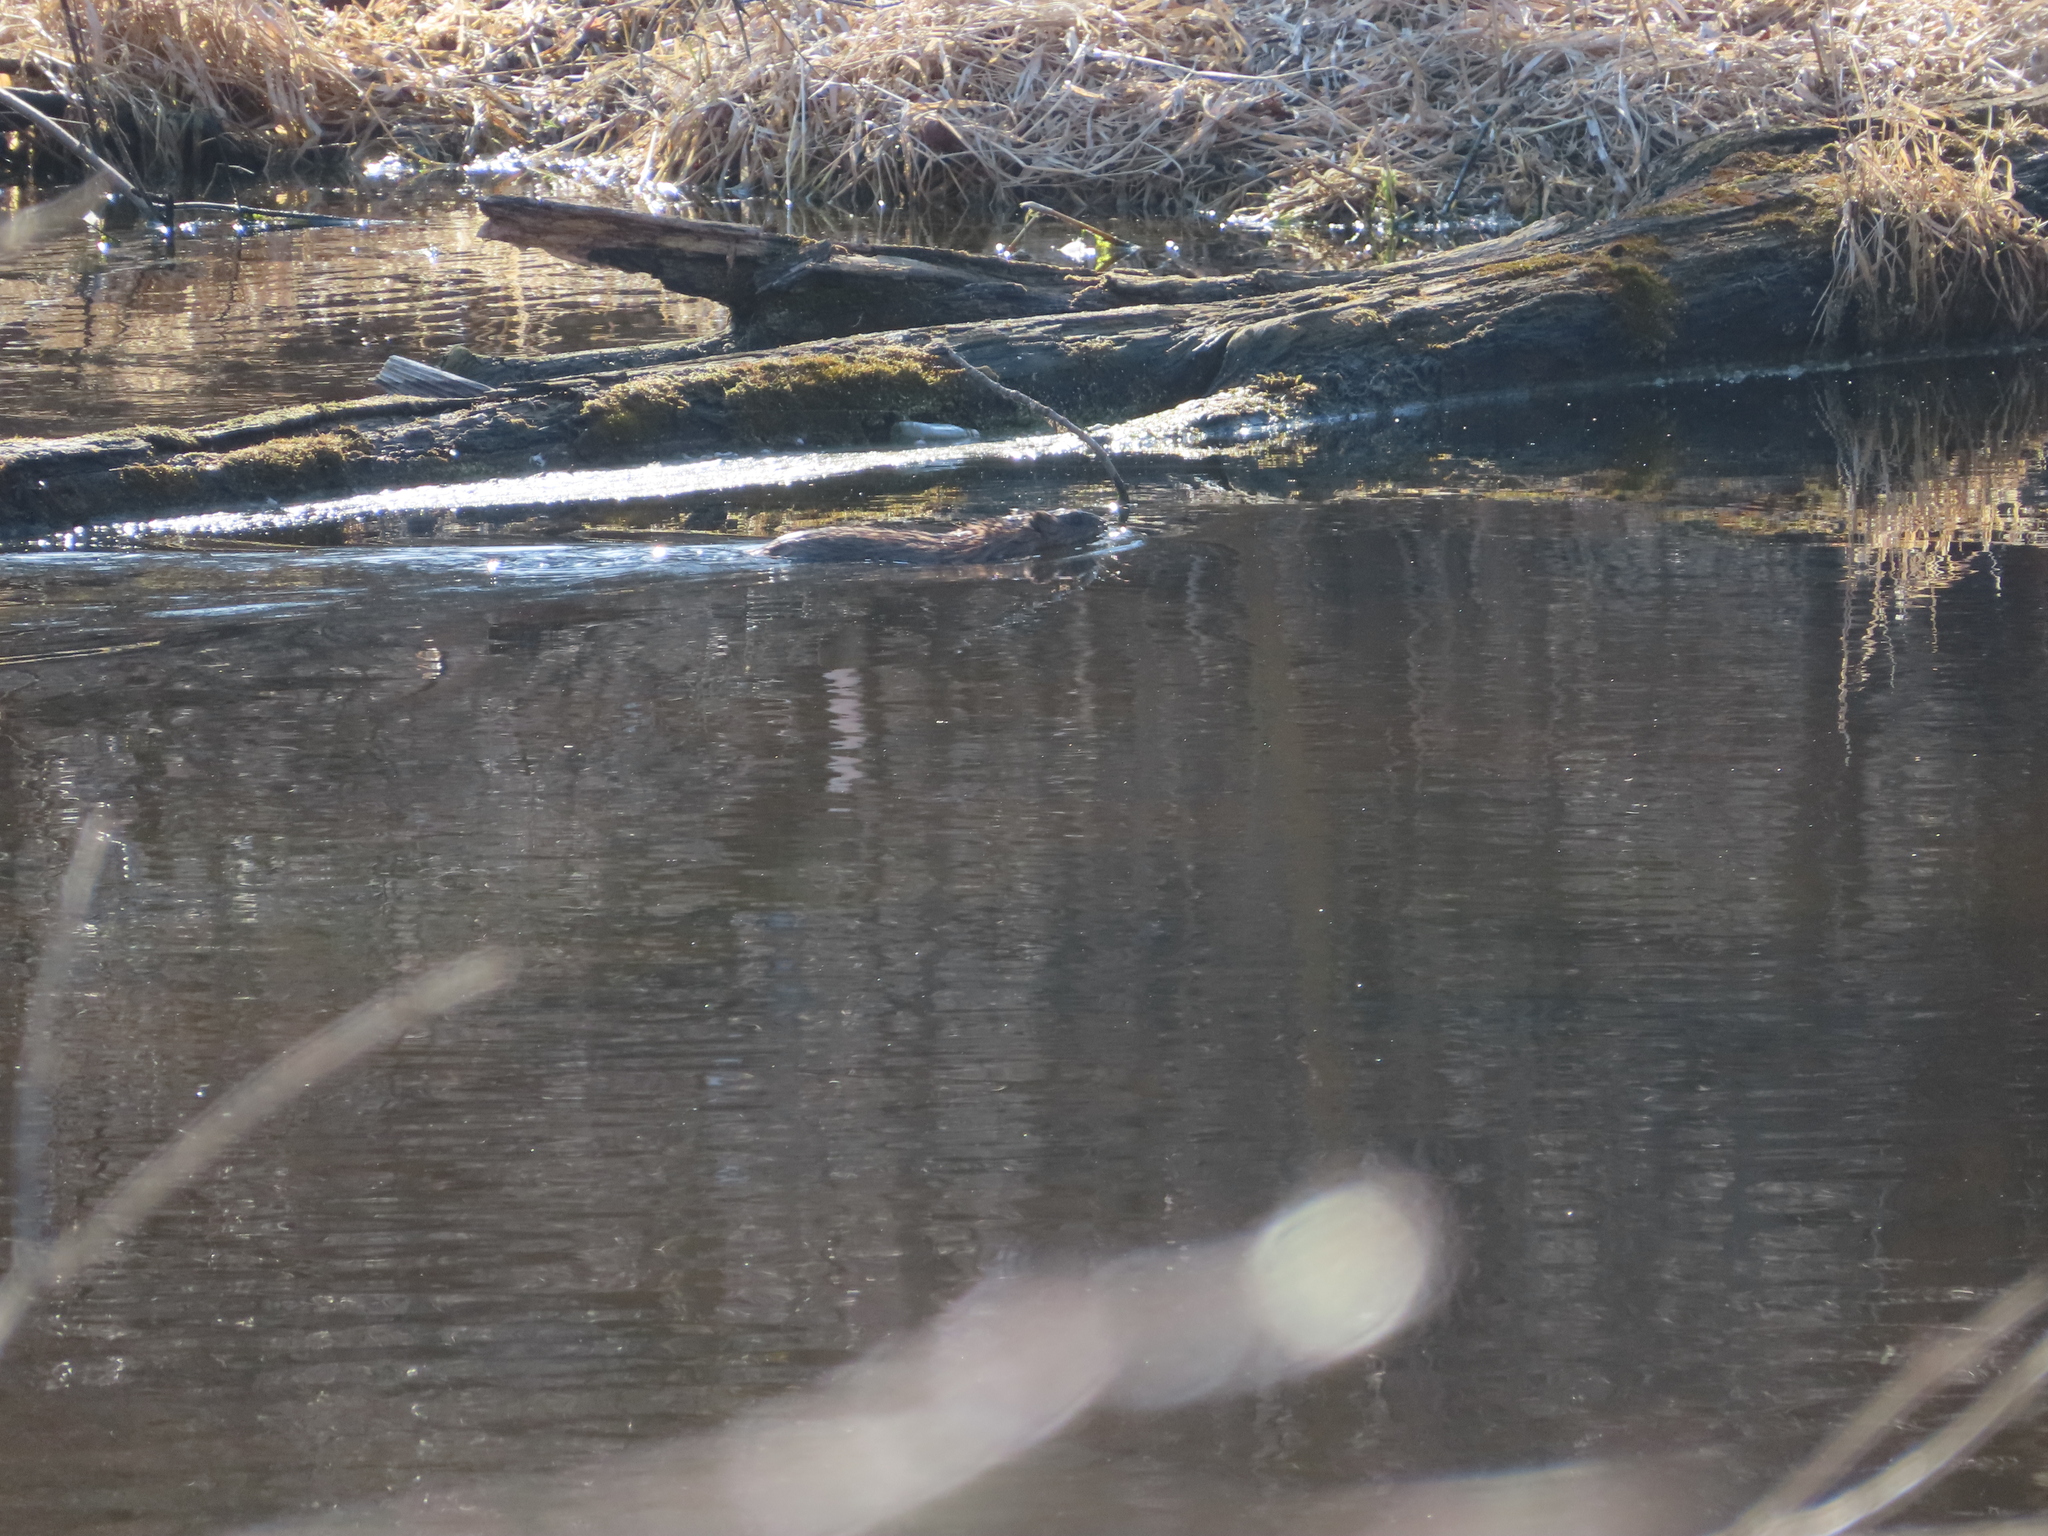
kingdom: Animalia
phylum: Chordata
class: Mammalia
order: Rodentia
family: Cricetidae
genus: Ondatra
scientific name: Ondatra zibethicus
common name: Muskrat
